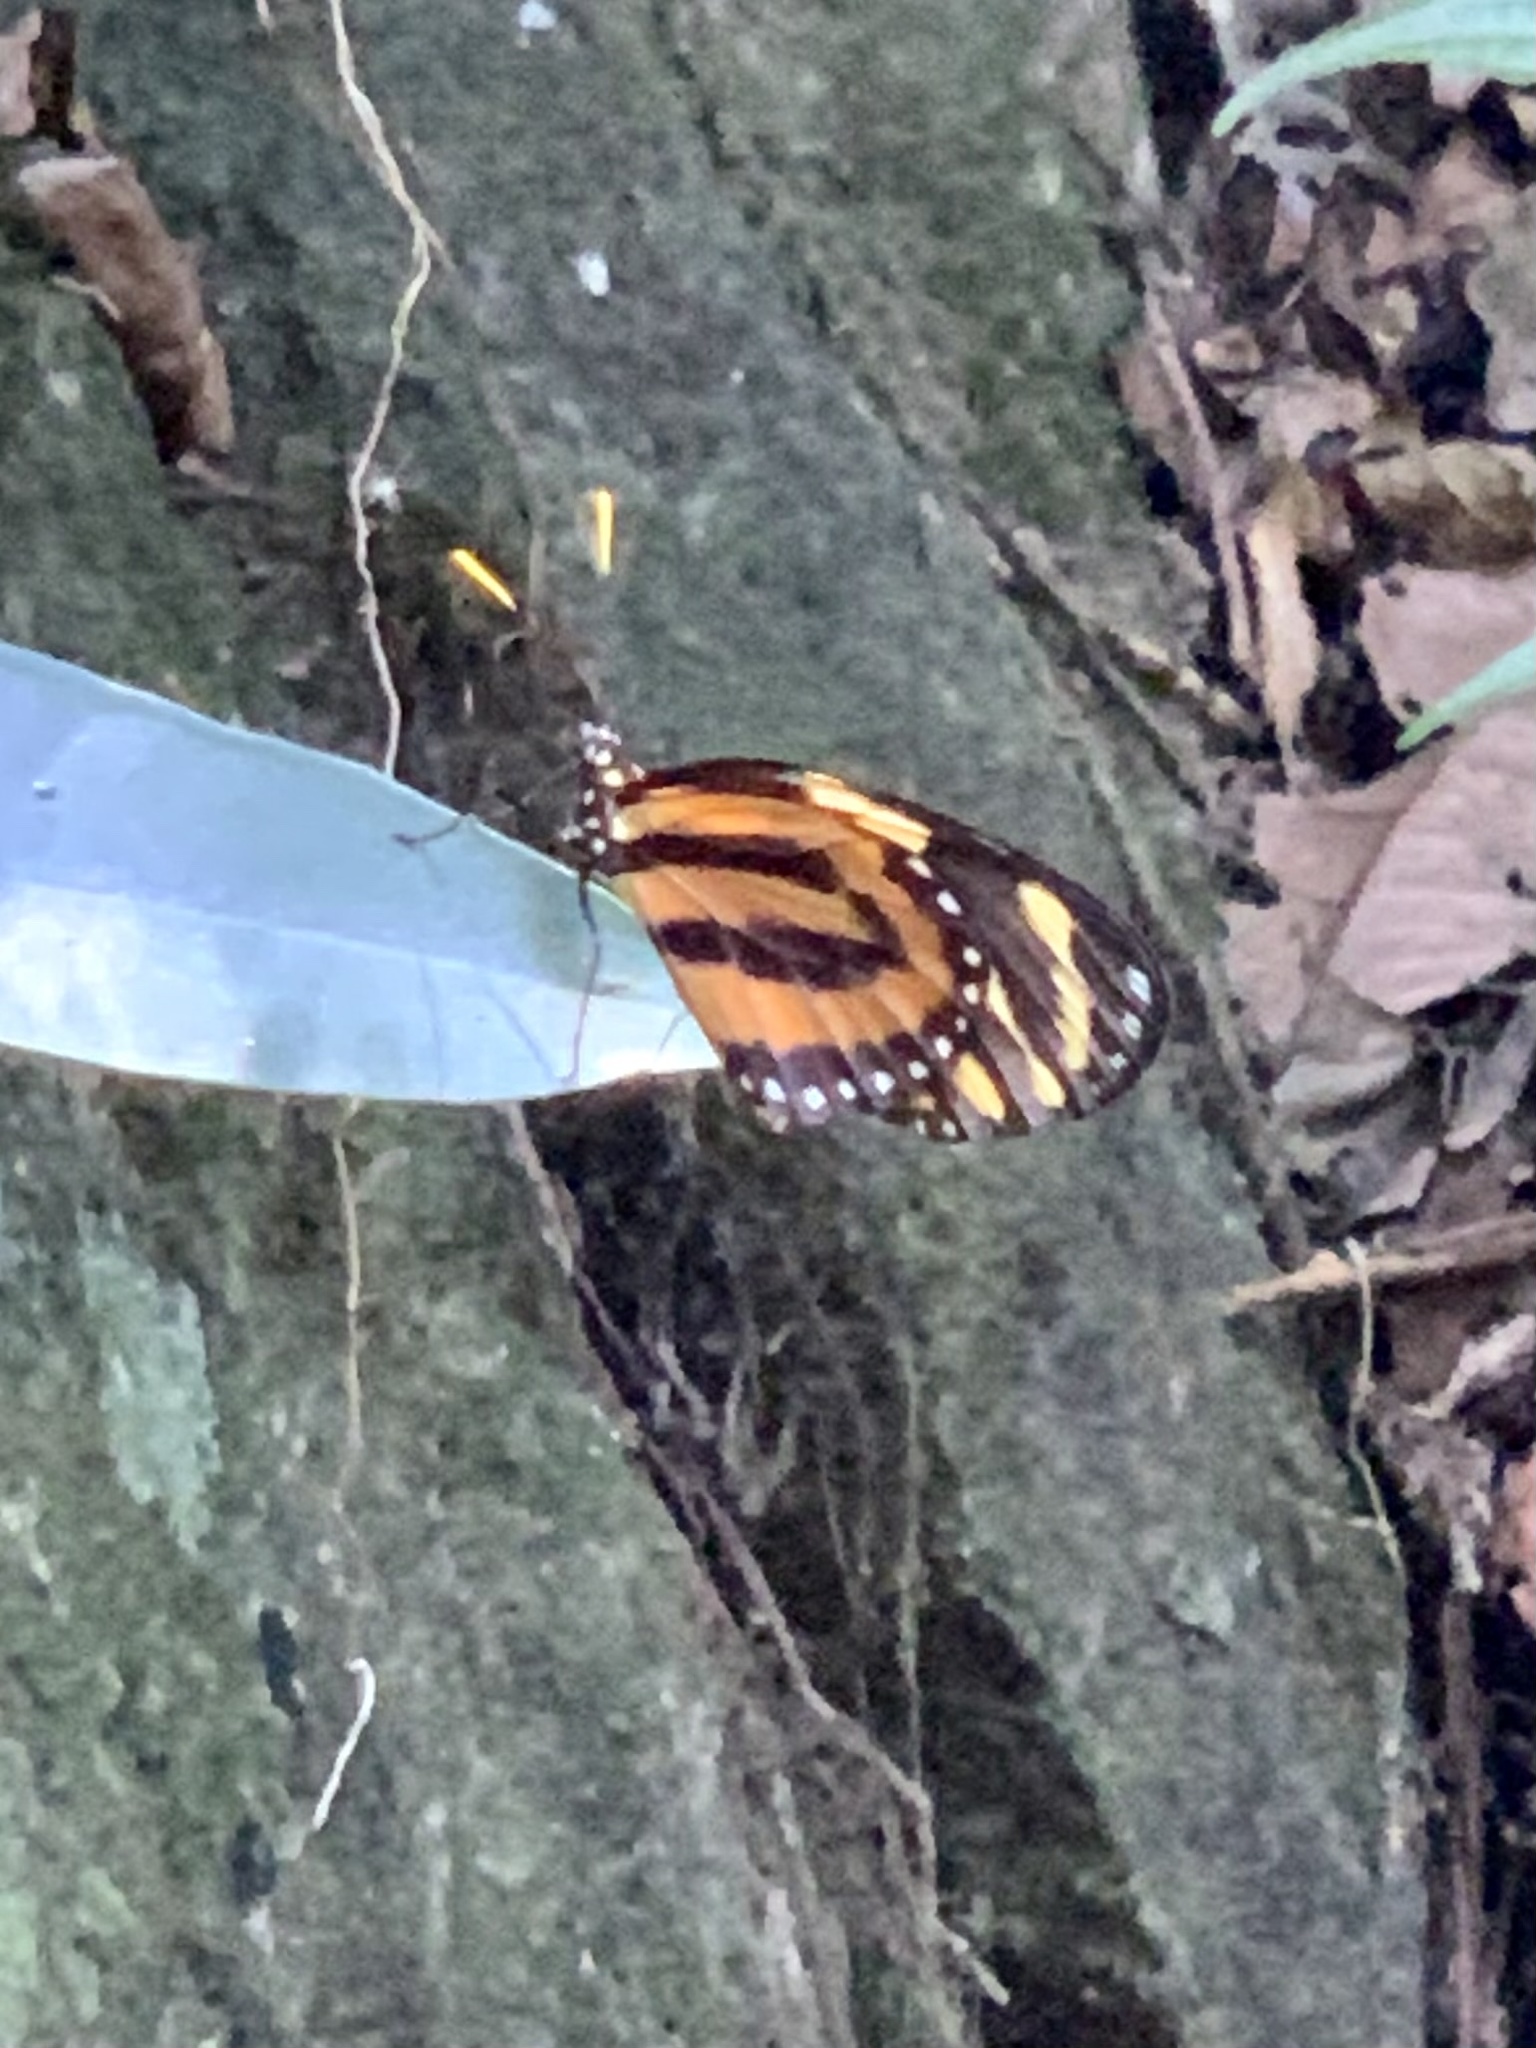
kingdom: Animalia
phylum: Arthropoda
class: Insecta
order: Lepidoptera
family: Nymphalidae
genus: Lycorea
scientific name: Lycorea cleobaea
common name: Tiger mimic-queen
